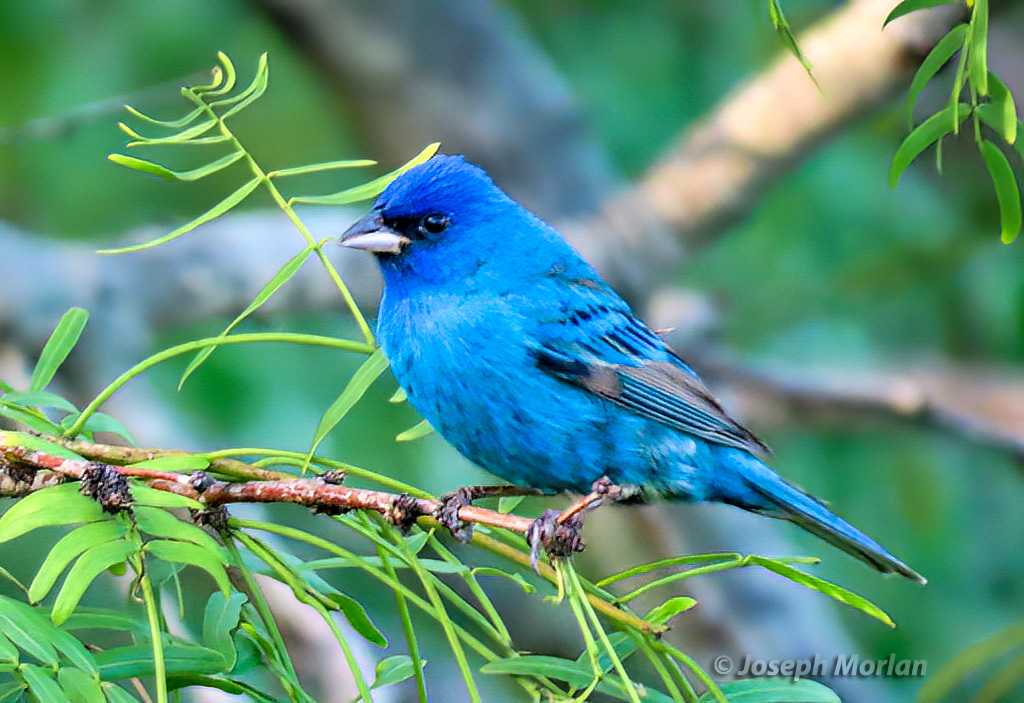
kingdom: Animalia
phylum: Chordata
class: Aves
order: Passeriformes
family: Cardinalidae
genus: Passerina
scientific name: Passerina cyanea
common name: Indigo bunting
